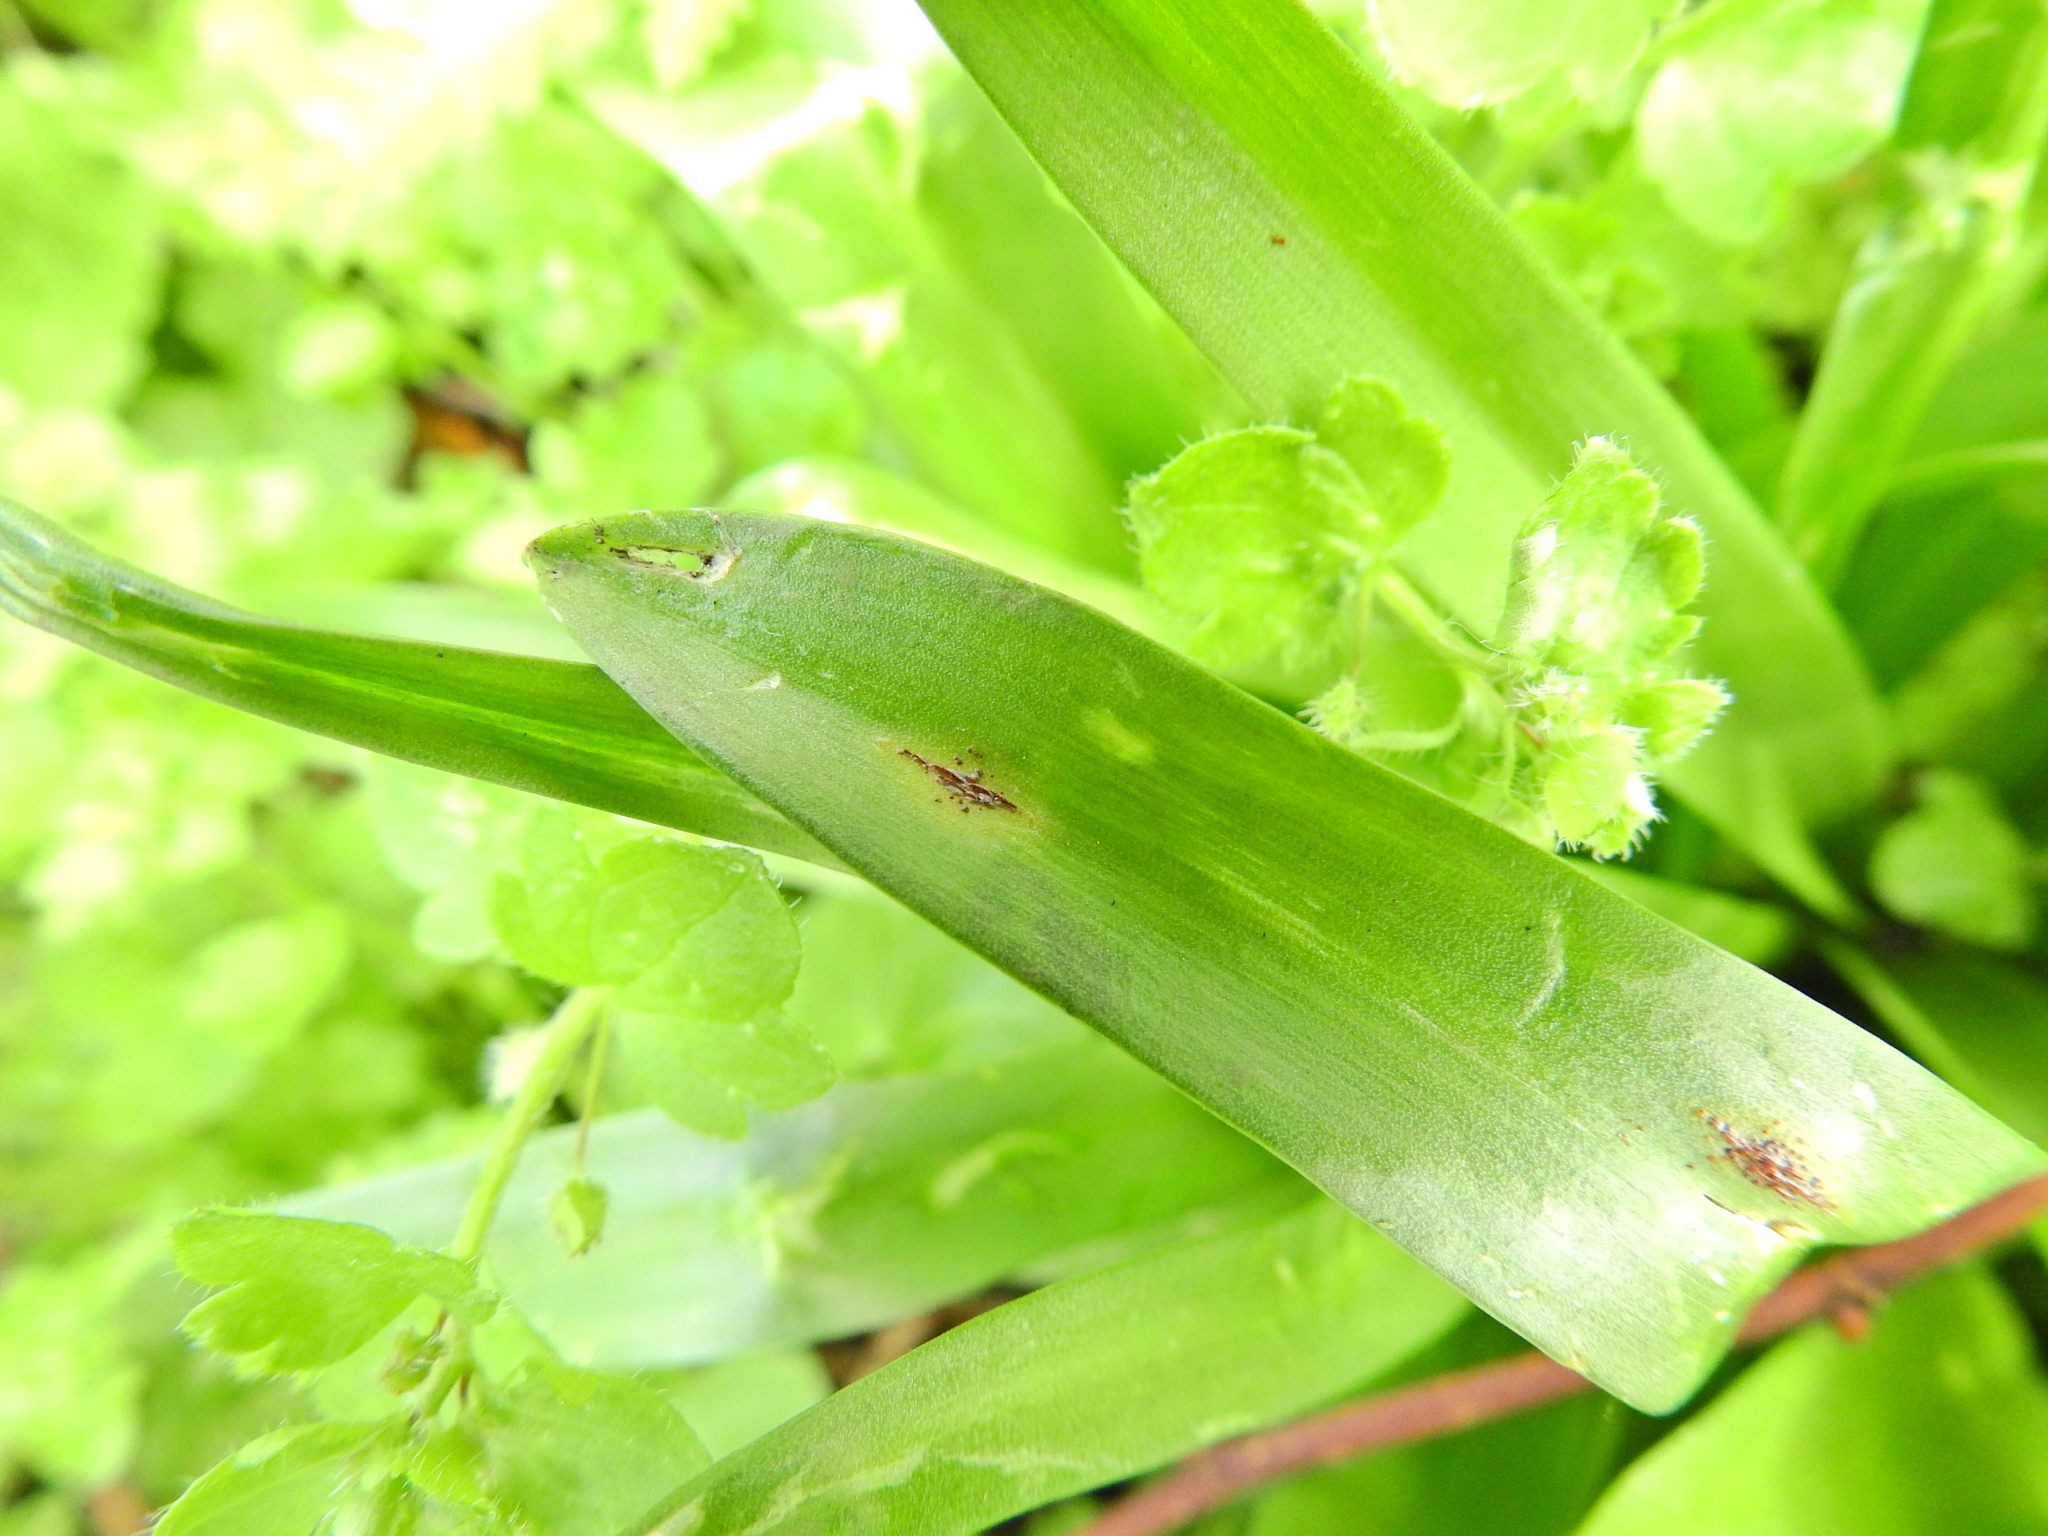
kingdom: Fungi
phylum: Basidiomycota
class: Pucciniomycetes
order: Pucciniales
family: Pucciniaceae
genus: Uromyces
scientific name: Uromyces hyacinthi
